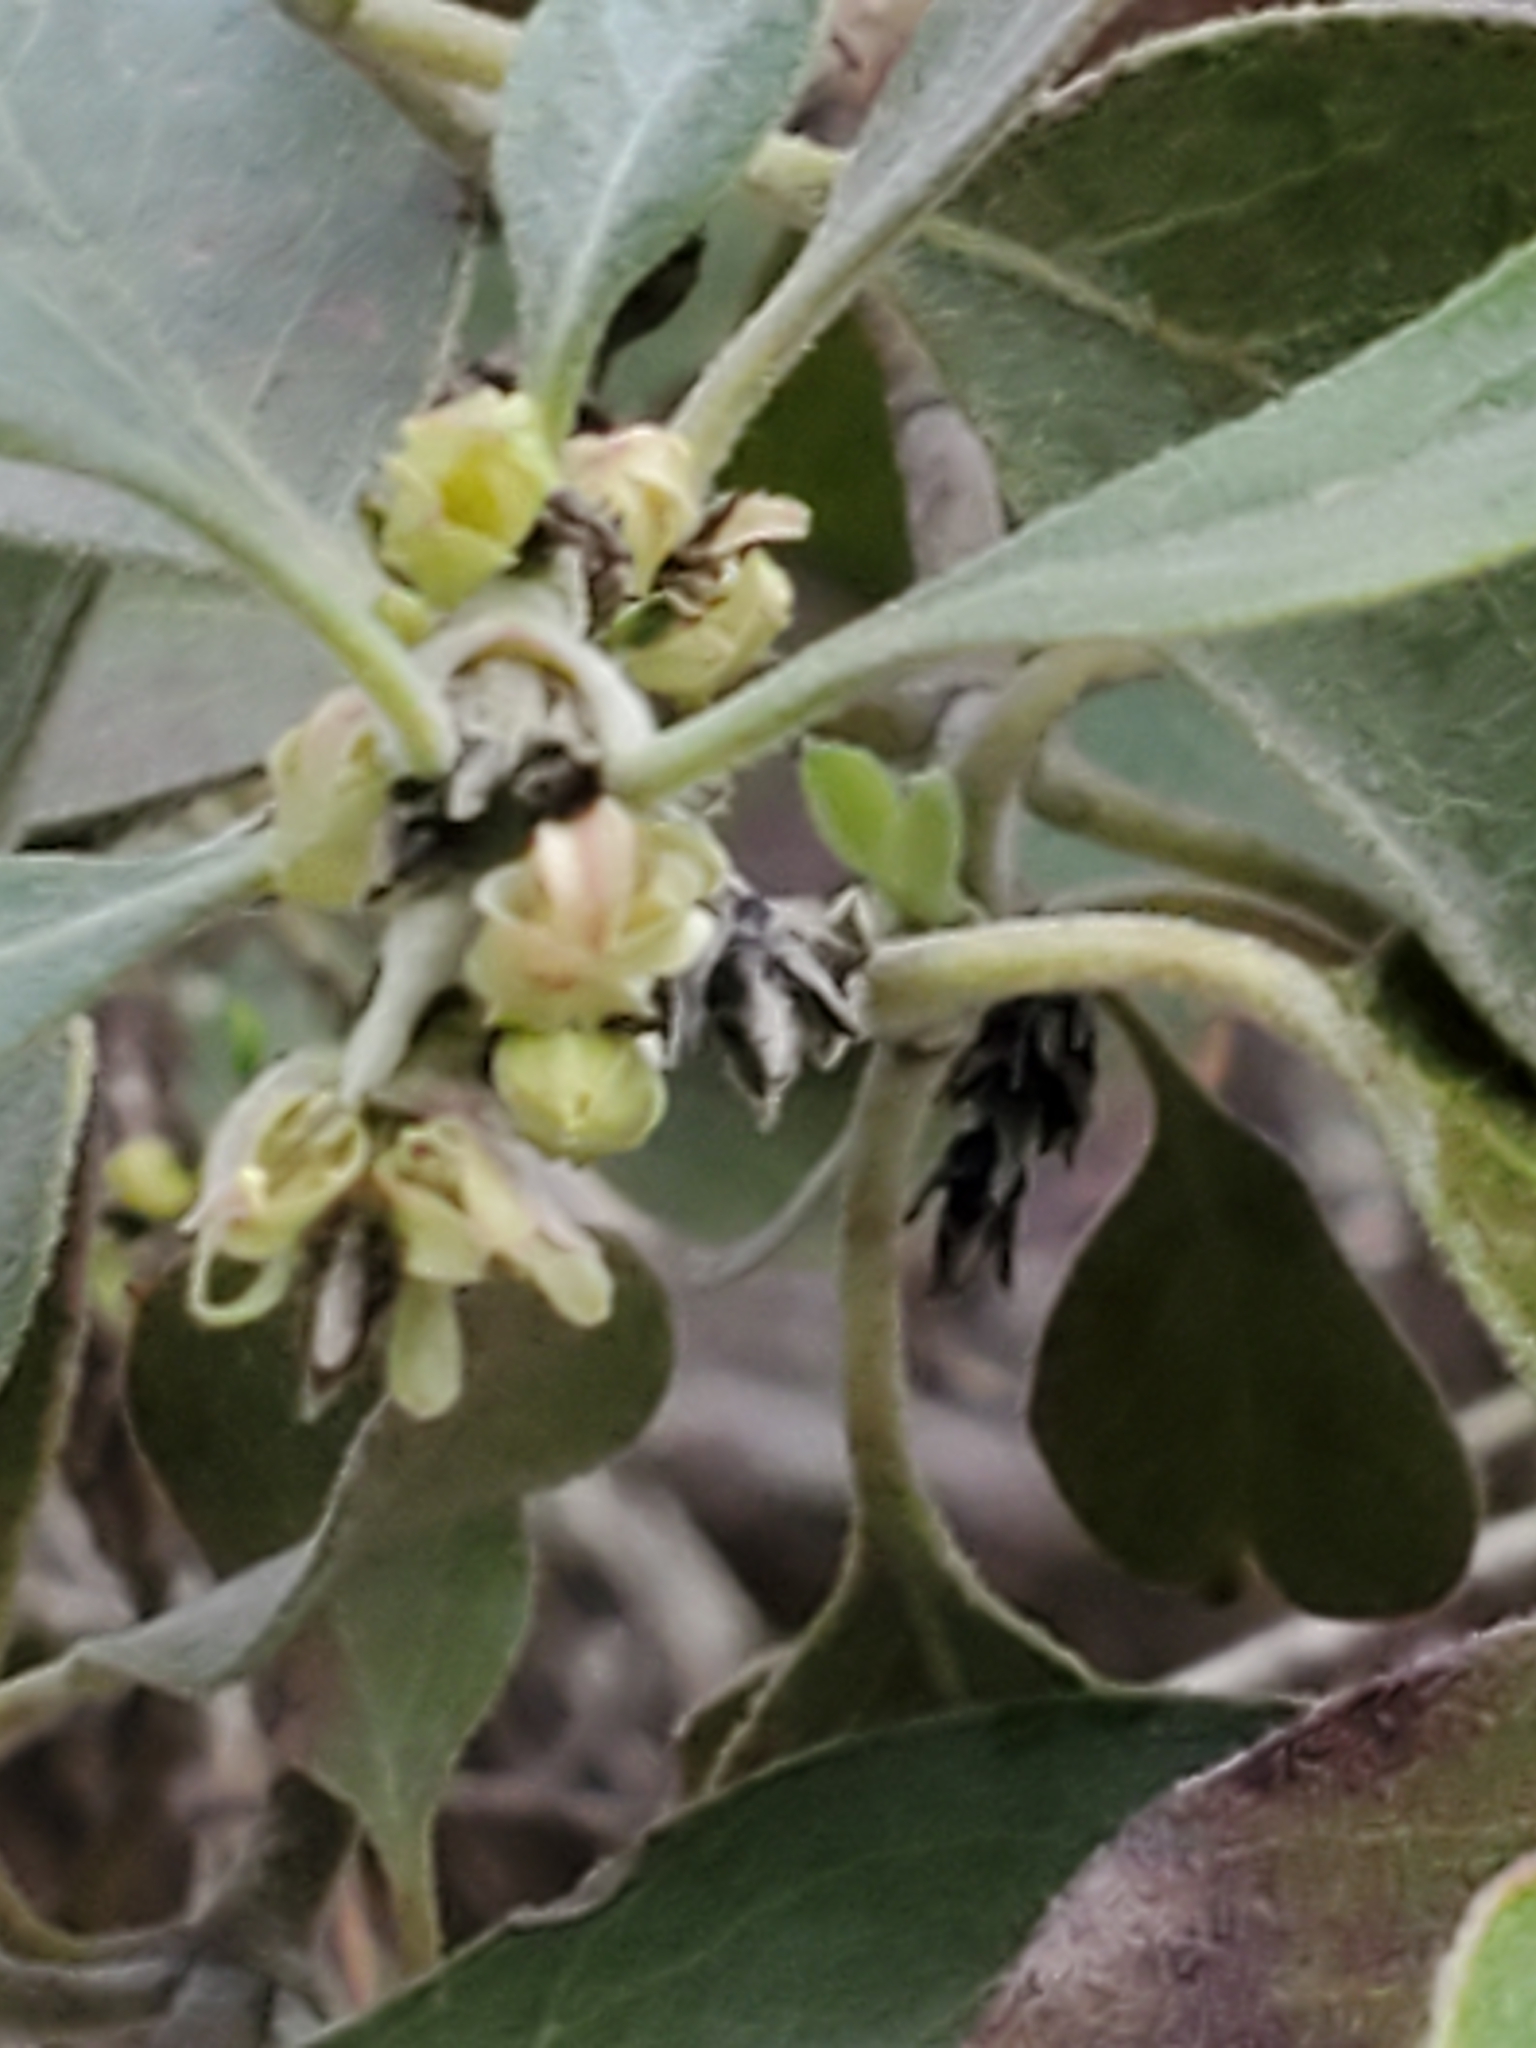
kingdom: Plantae
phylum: Tracheophyta
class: Magnoliopsida
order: Garryales
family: Garryaceae
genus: Garrya
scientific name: Garrya lindheimeri
